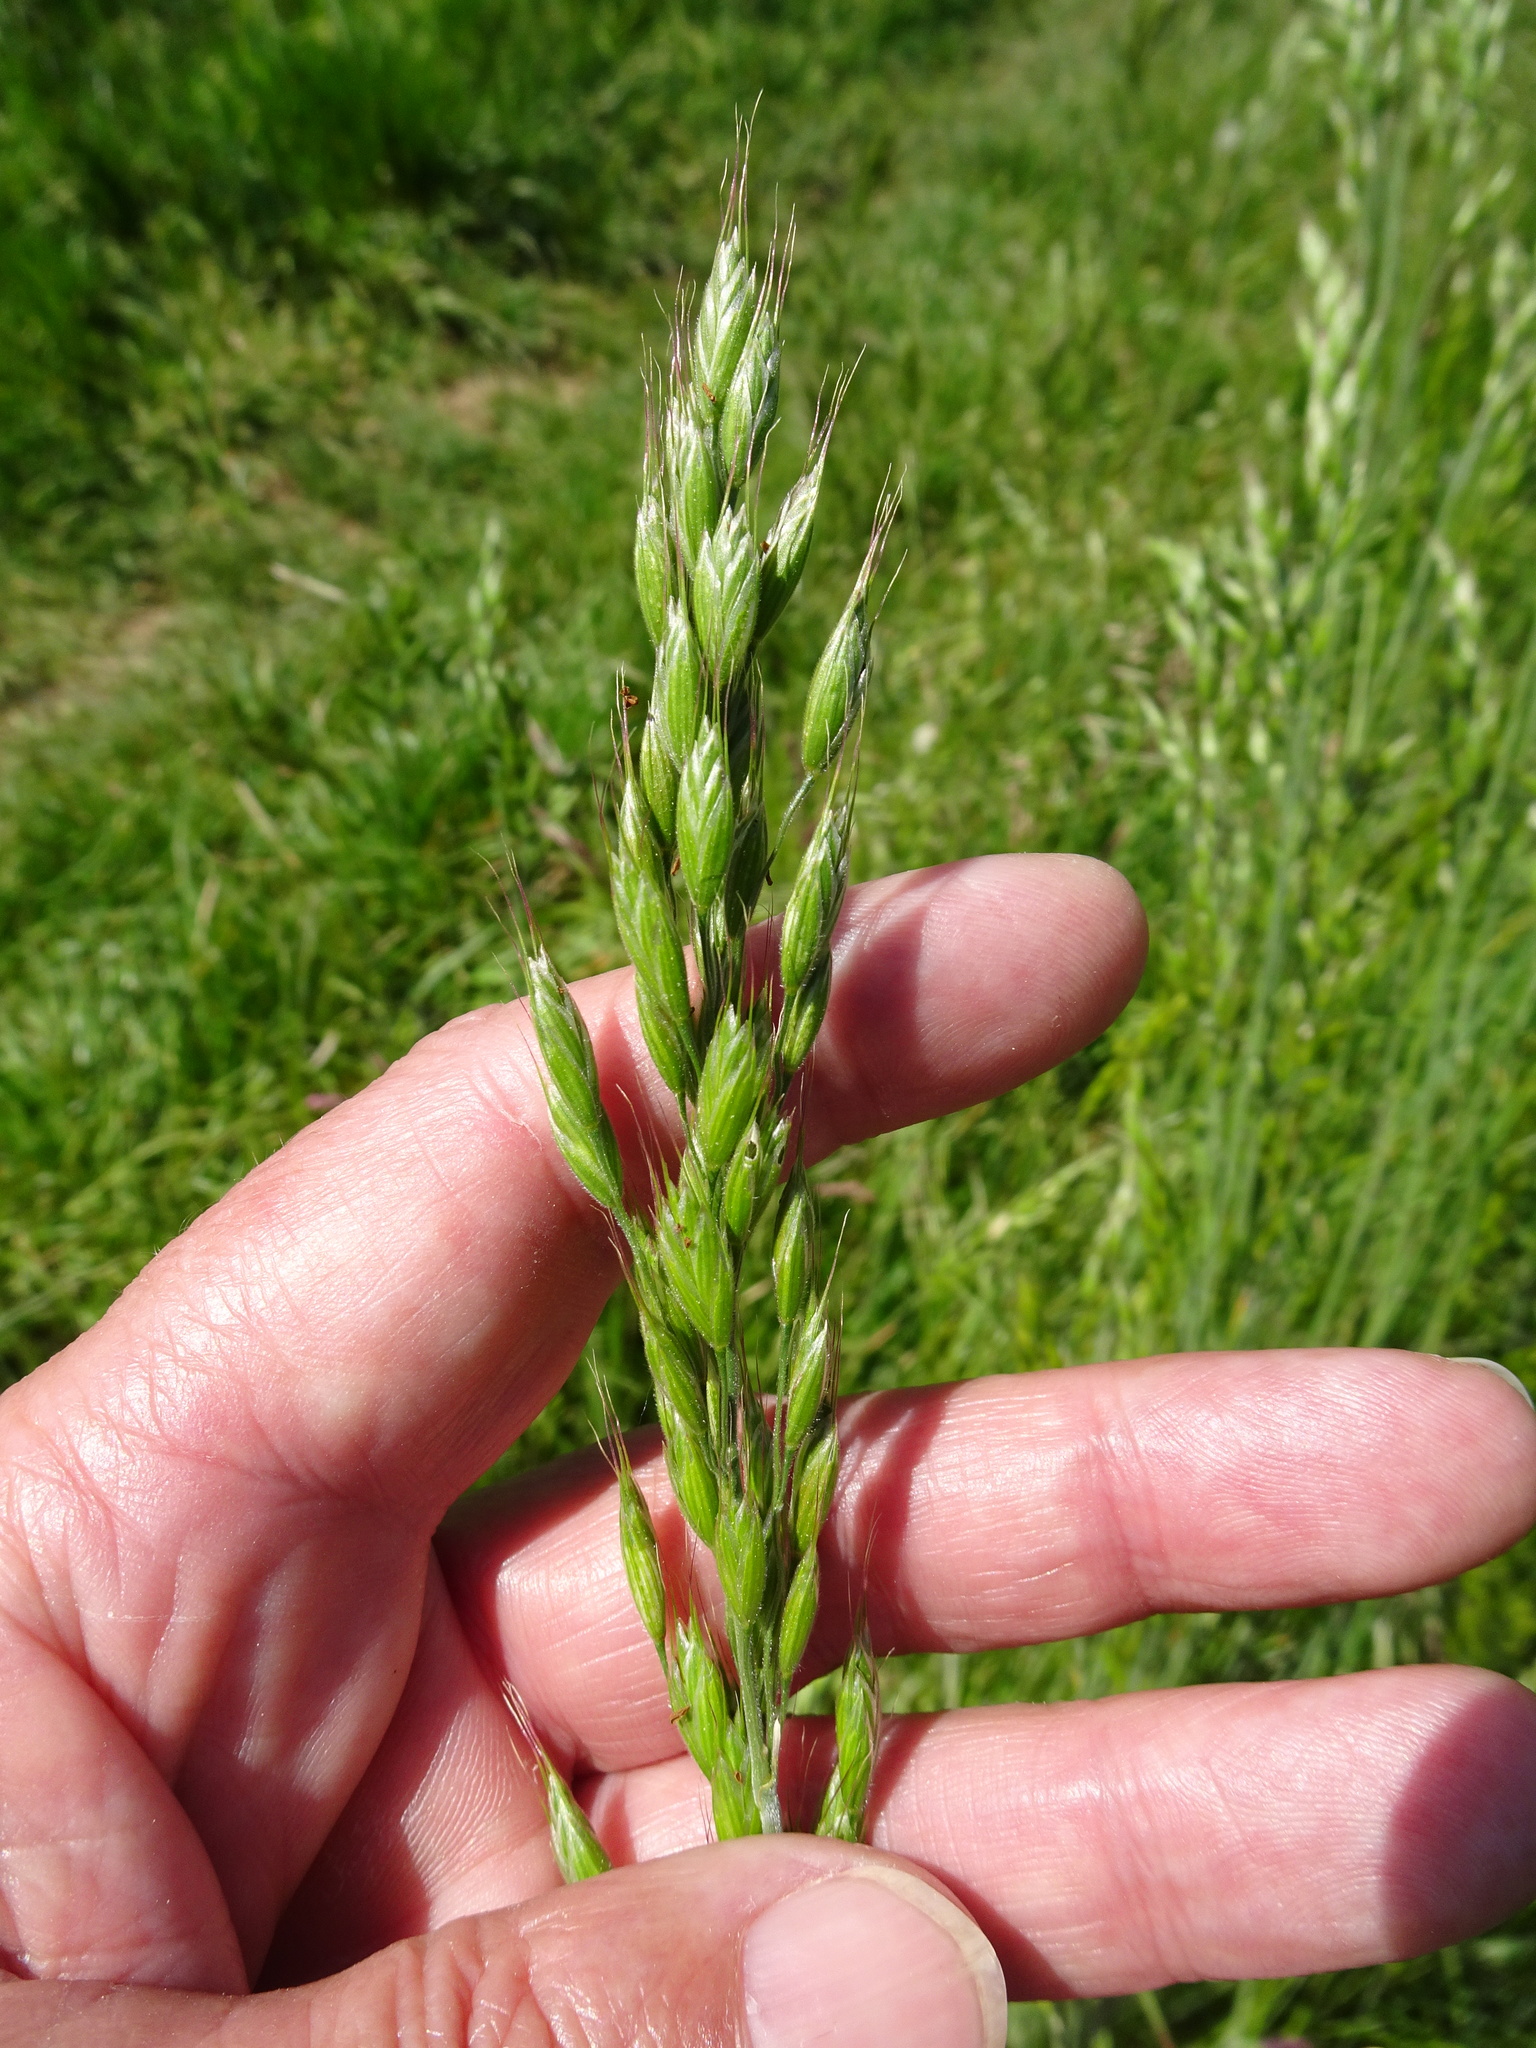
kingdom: Plantae
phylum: Tracheophyta
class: Liliopsida
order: Poales
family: Poaceae
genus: Bromus
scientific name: Bromus hordeaceus
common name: Soft brome
